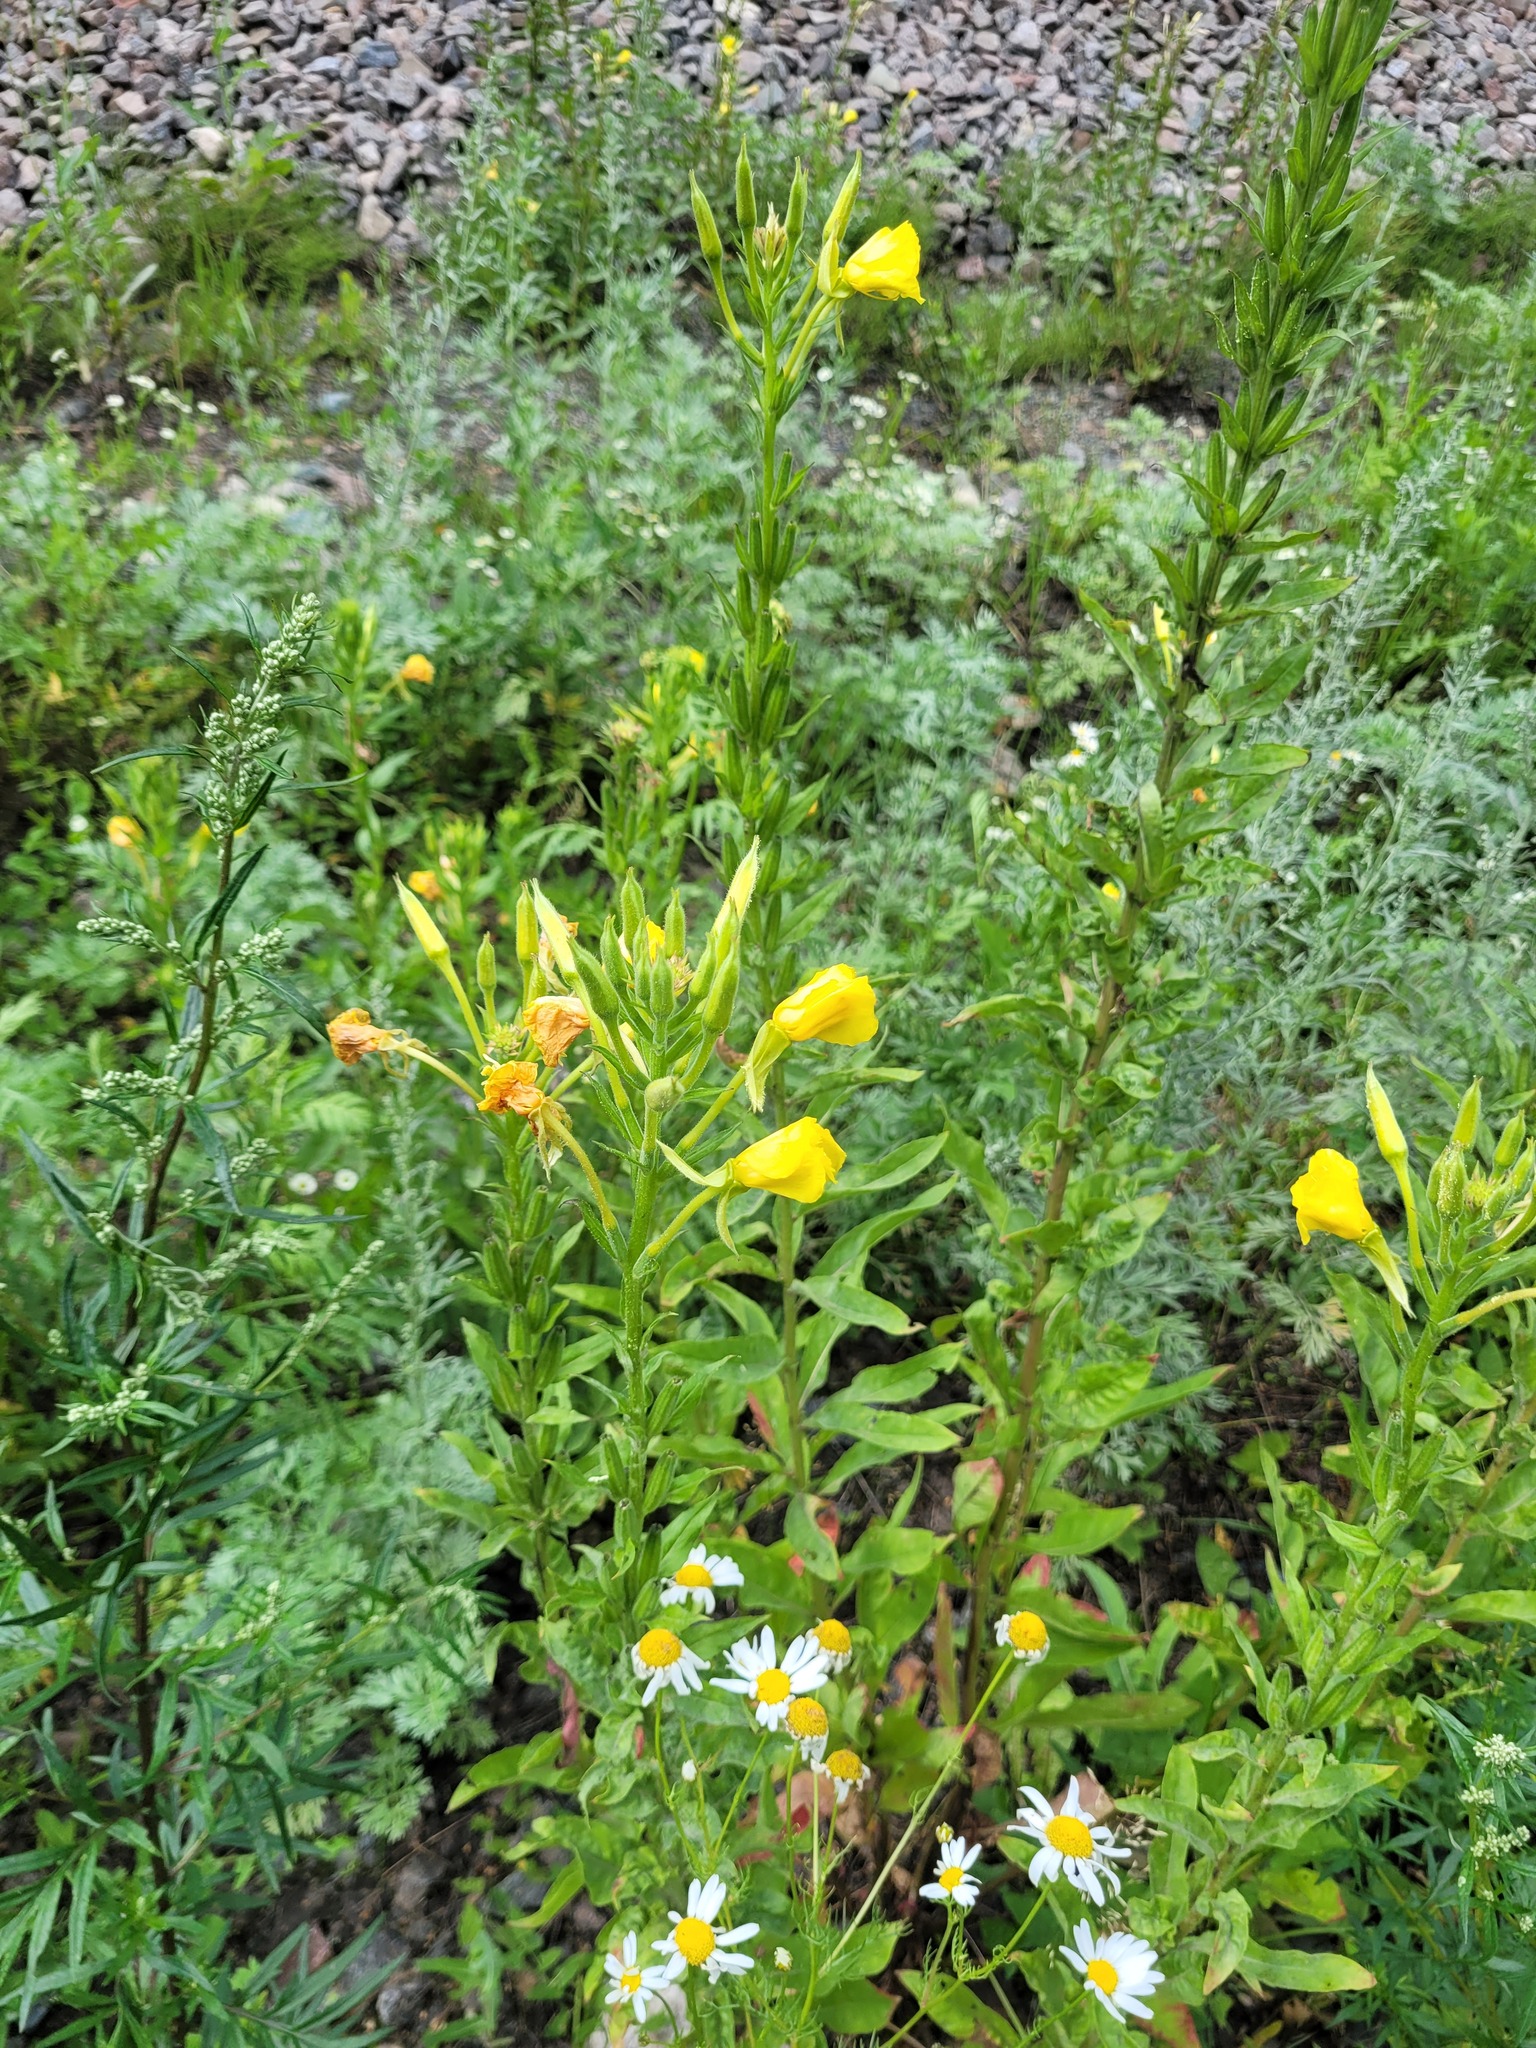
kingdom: Plantae
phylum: Tracheophyta
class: Magnoliopsida
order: Myrtales
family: Onagraceae
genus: Oenothera
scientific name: Oenothera biennis
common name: Common evening-primrose
